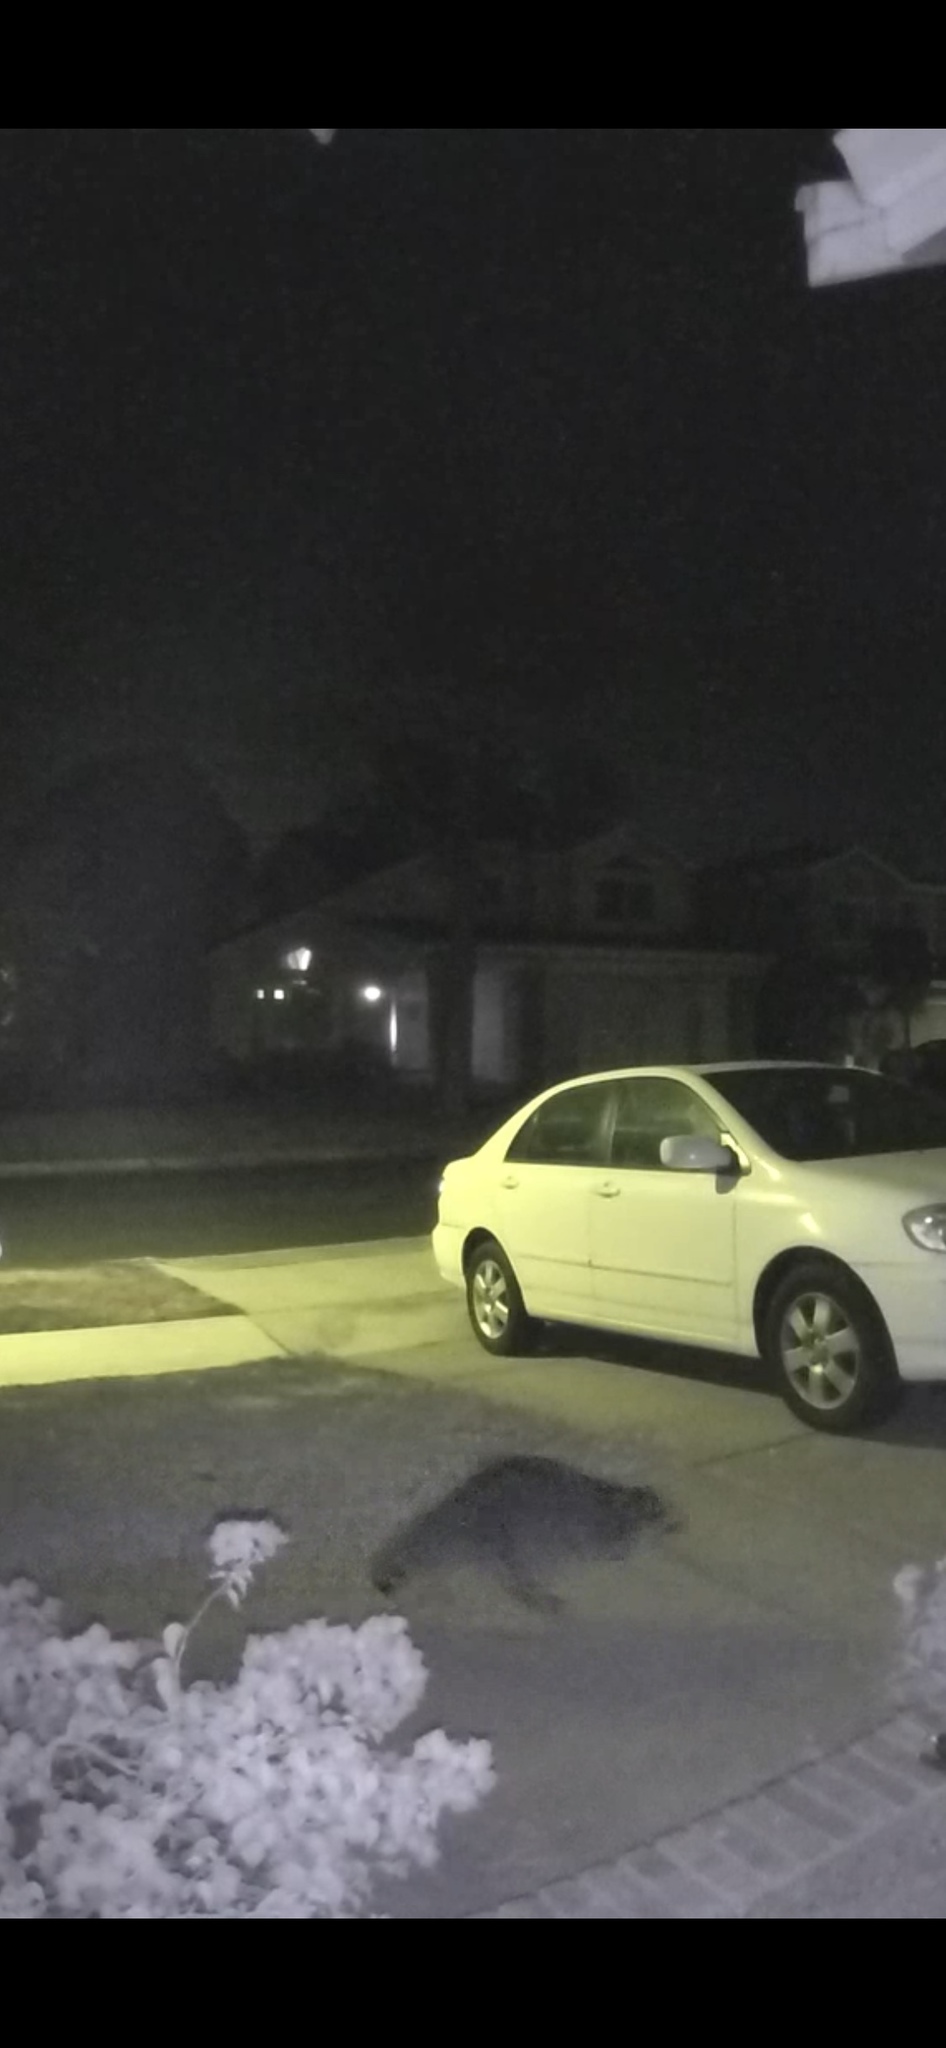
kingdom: Animalia
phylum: Chordata
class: Mammalia
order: Carnivora
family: Procyonidae
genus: Procyon
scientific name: Procyon lotor
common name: Raccoon
